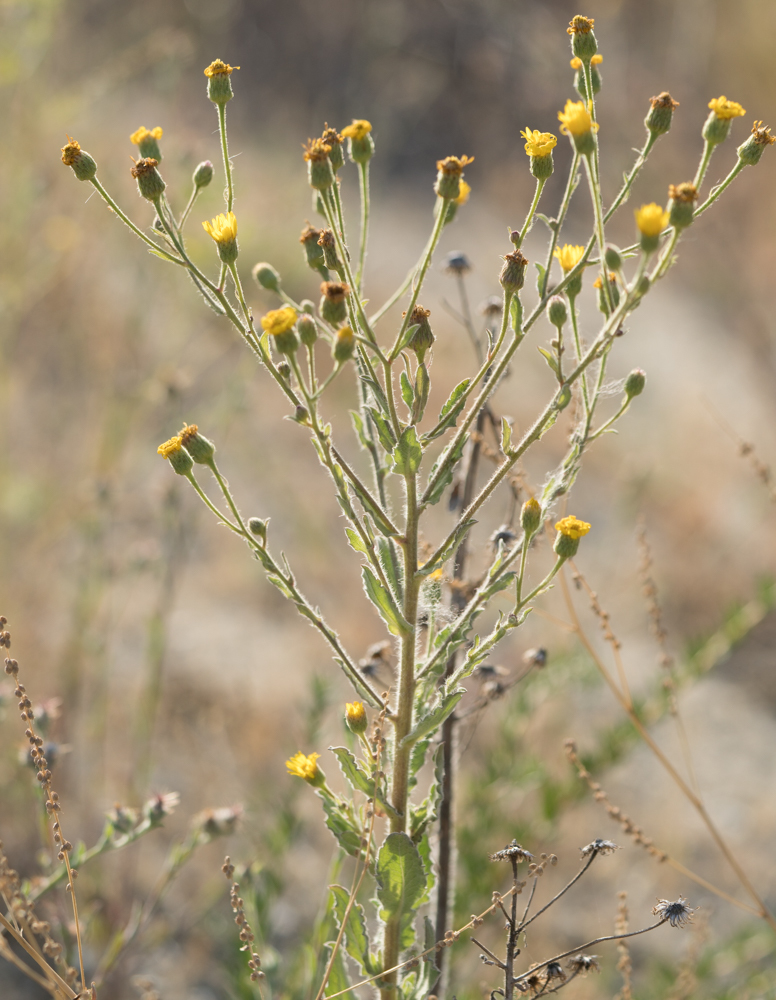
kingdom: Plantae
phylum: Tracheophyta
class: Magnoliopsida
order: Asterales
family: Asteraceae
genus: Heterotheca
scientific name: Heterotheca grandiflora
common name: Telegraphweed
